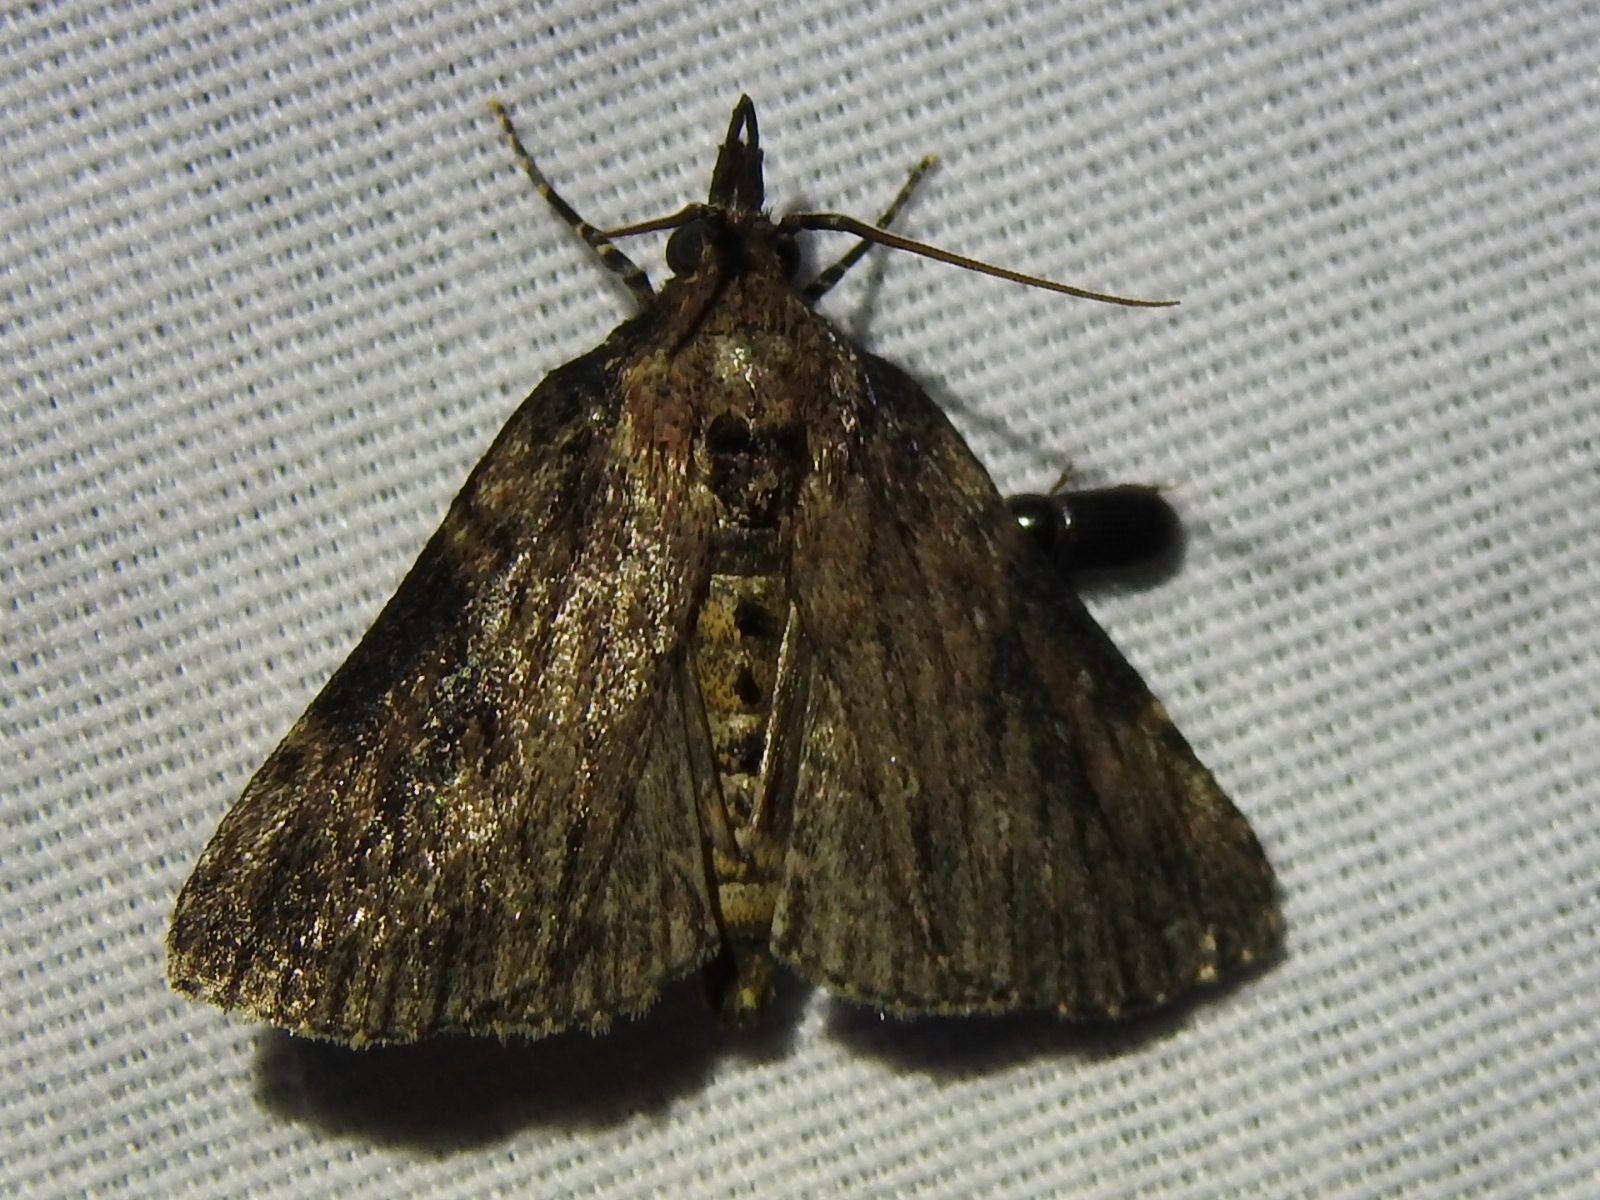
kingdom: Animalia
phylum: Arthropoda
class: Insecta
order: Lepidoptera
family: Pyralidae
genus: Omphalocera
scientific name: Omphalocera cariosa
